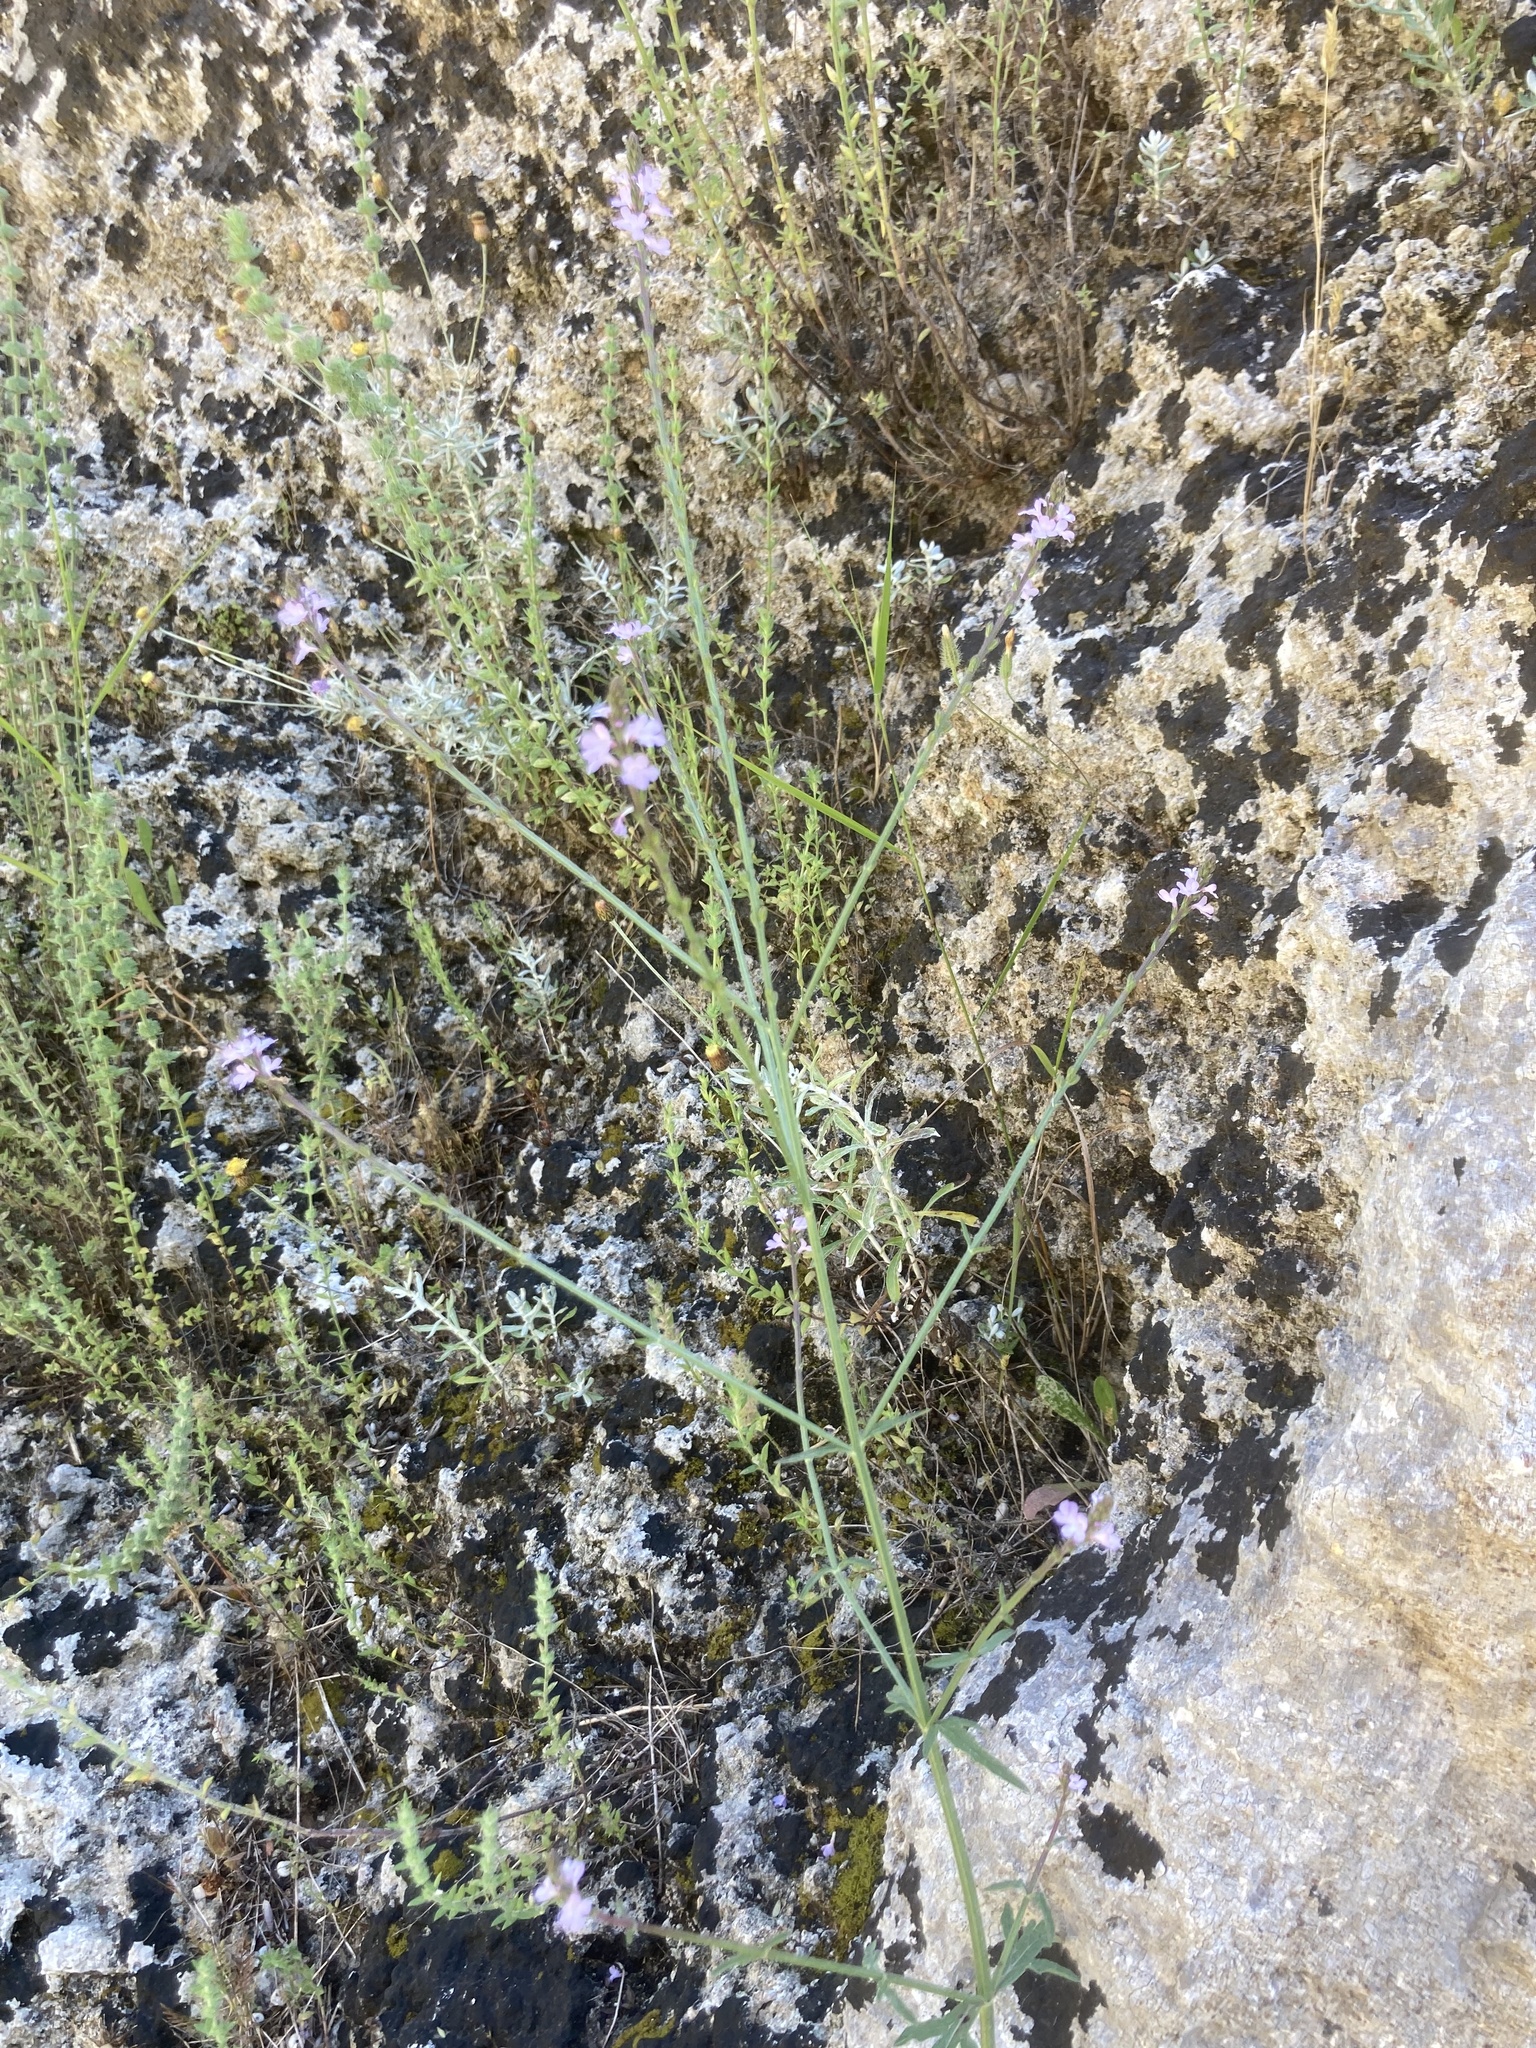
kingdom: Plantae
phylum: Tracheophyta
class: Magnoliopsida
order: Lamiales
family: Verbenaceae
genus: Verbena
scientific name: Verbena officinalis
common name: Vervain
